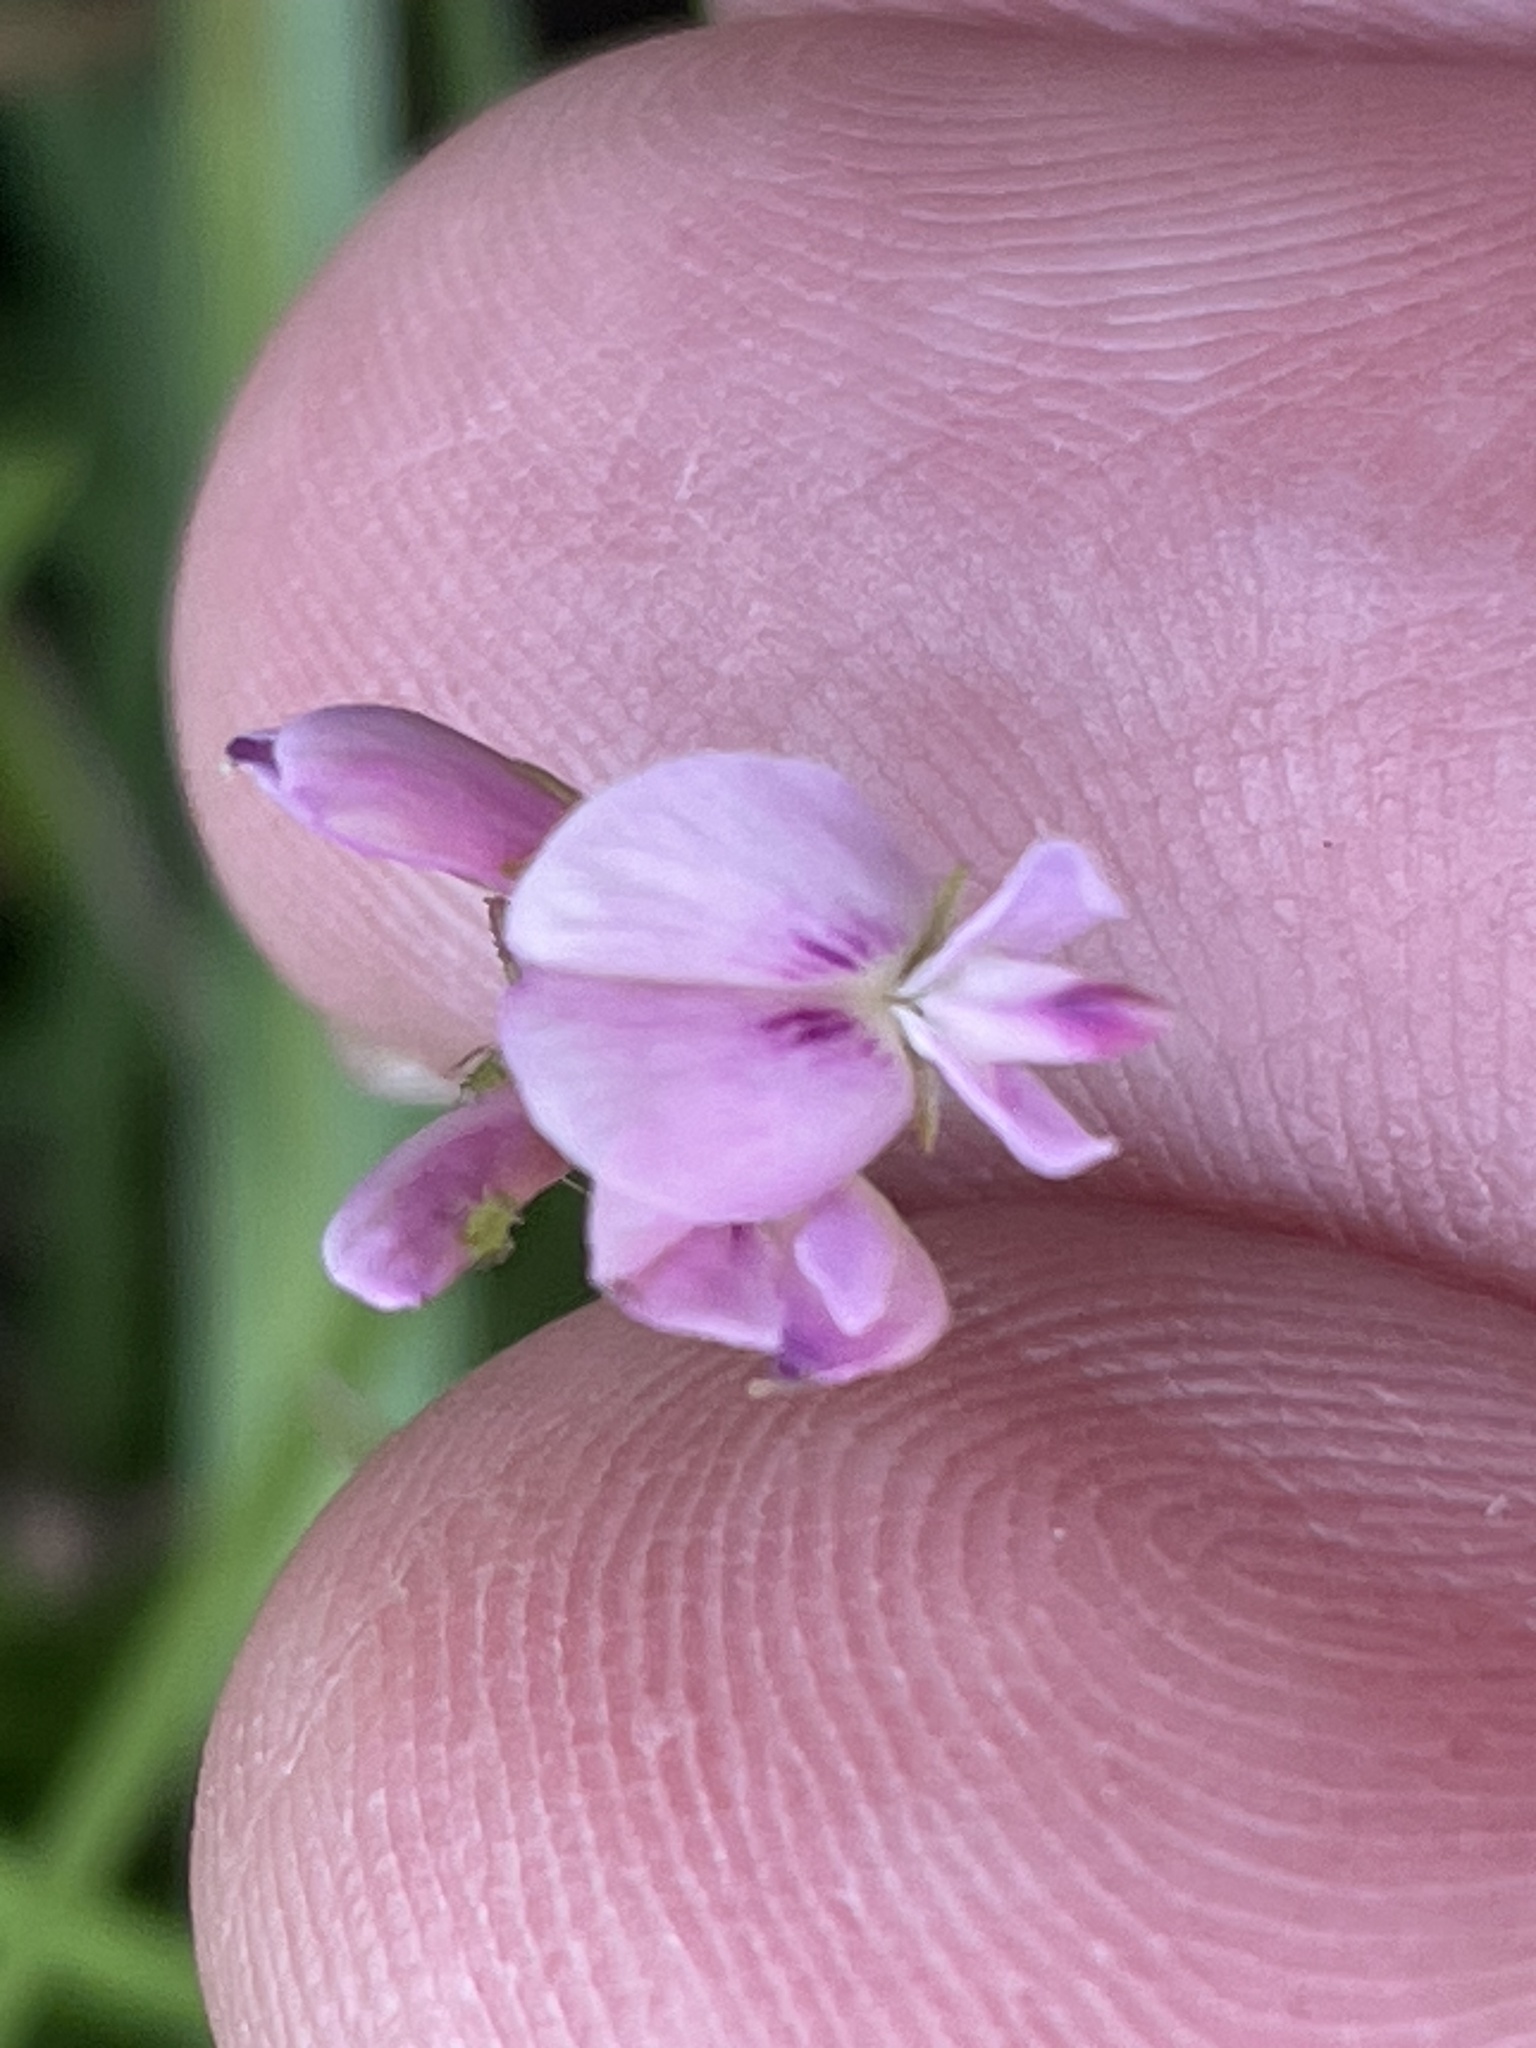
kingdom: Plantae
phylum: Tracheophyta
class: Magnoliopsida
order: Fabales
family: Fabaceae
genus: Lespedeza
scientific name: Lespedeza repens
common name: Creeping bush-clover
